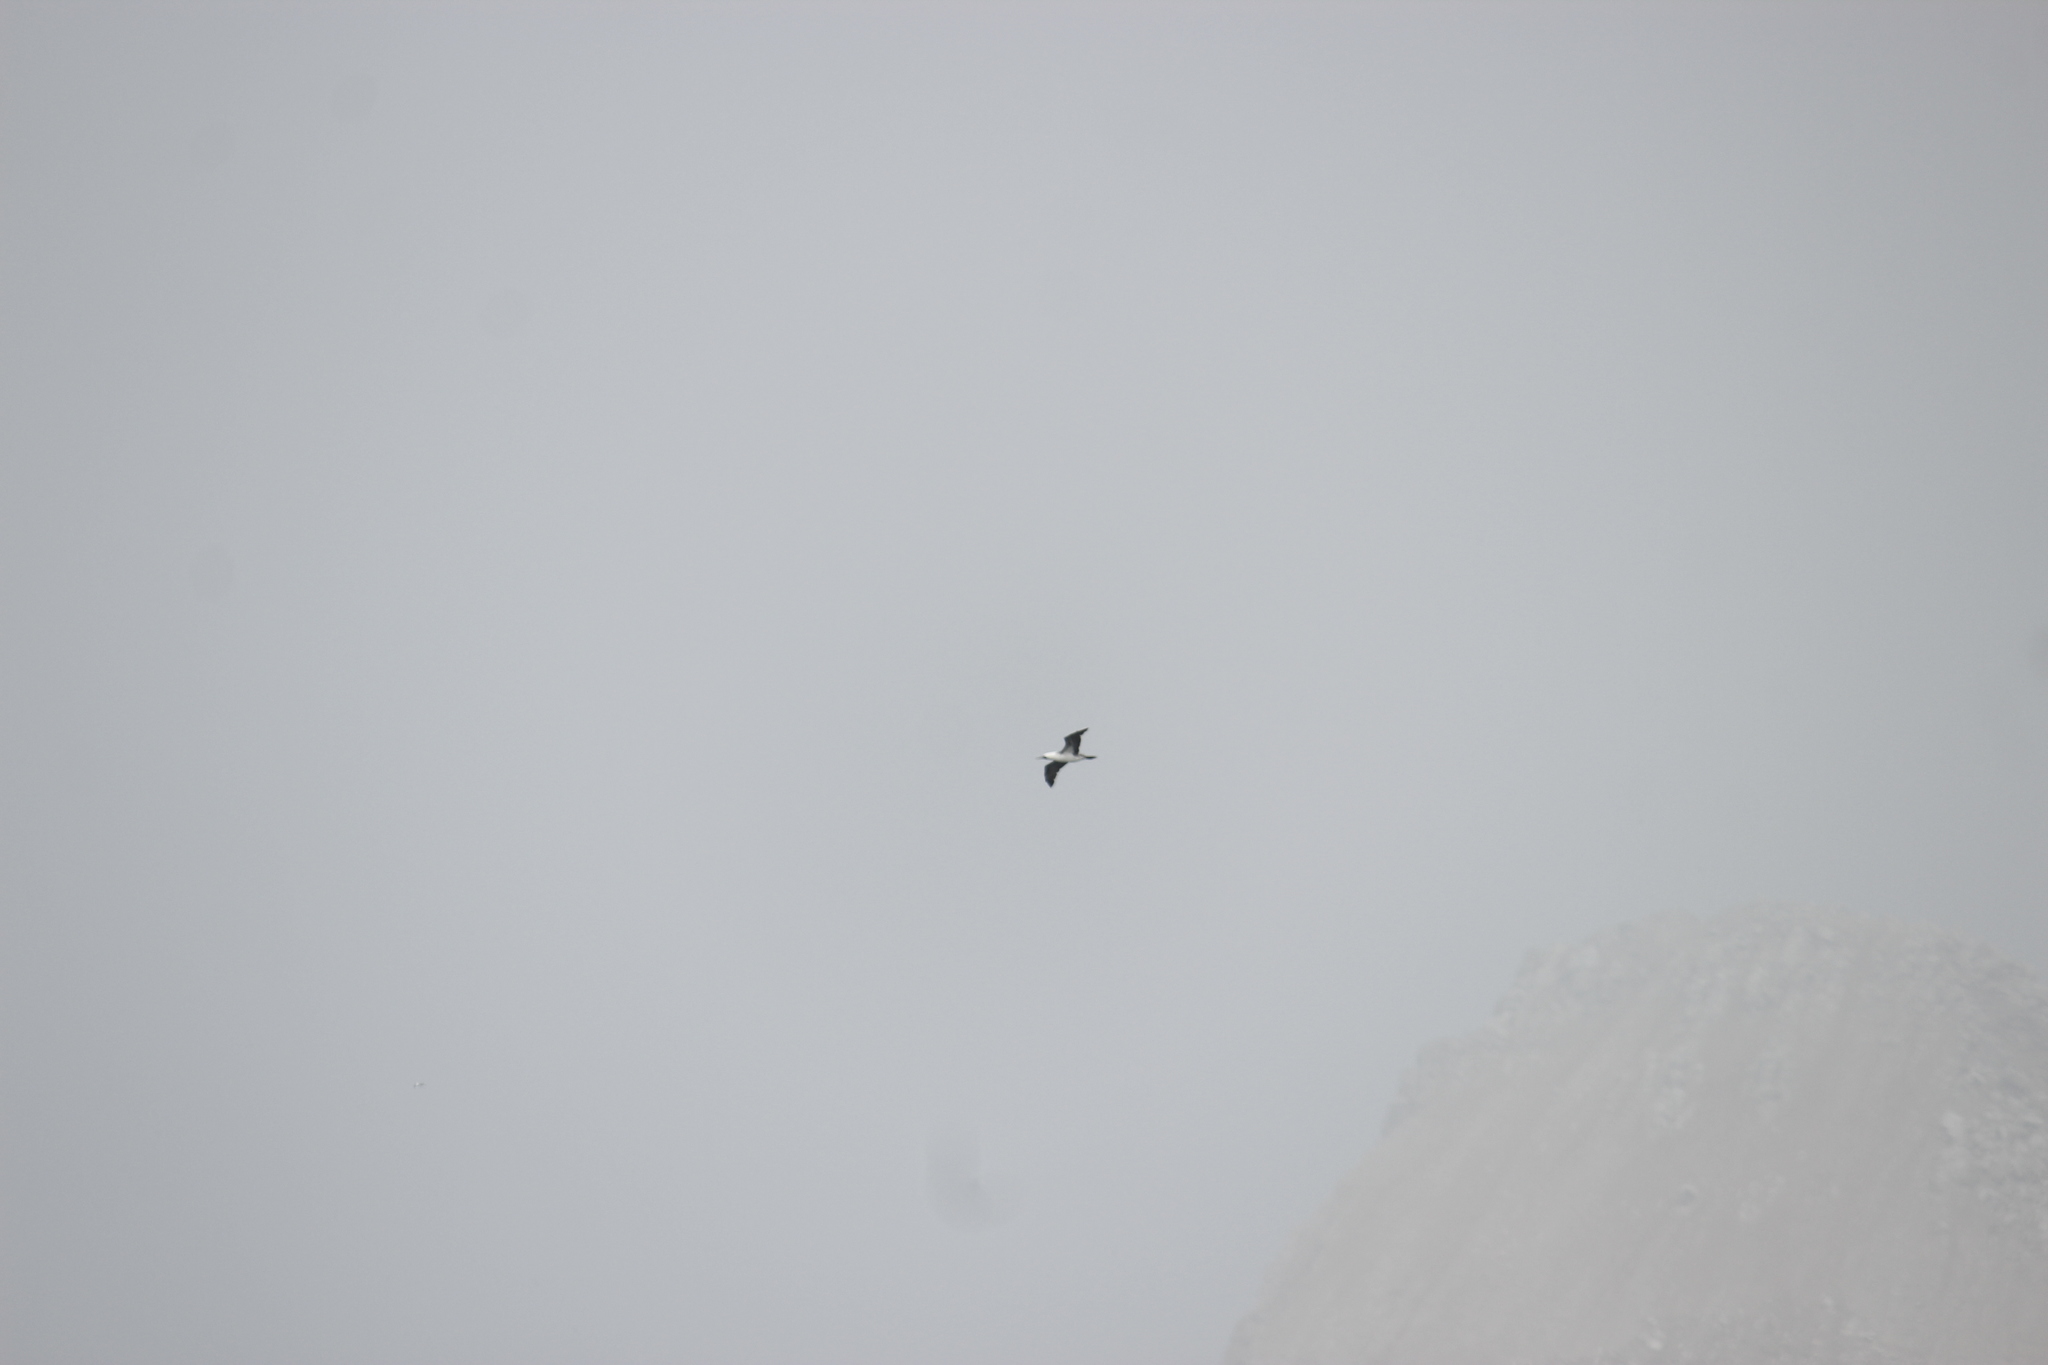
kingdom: Animalia
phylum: Chordata
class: Aves
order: Suliformes
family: Sulidae
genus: Sula
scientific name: Sula variegata
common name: Peruvian booby
